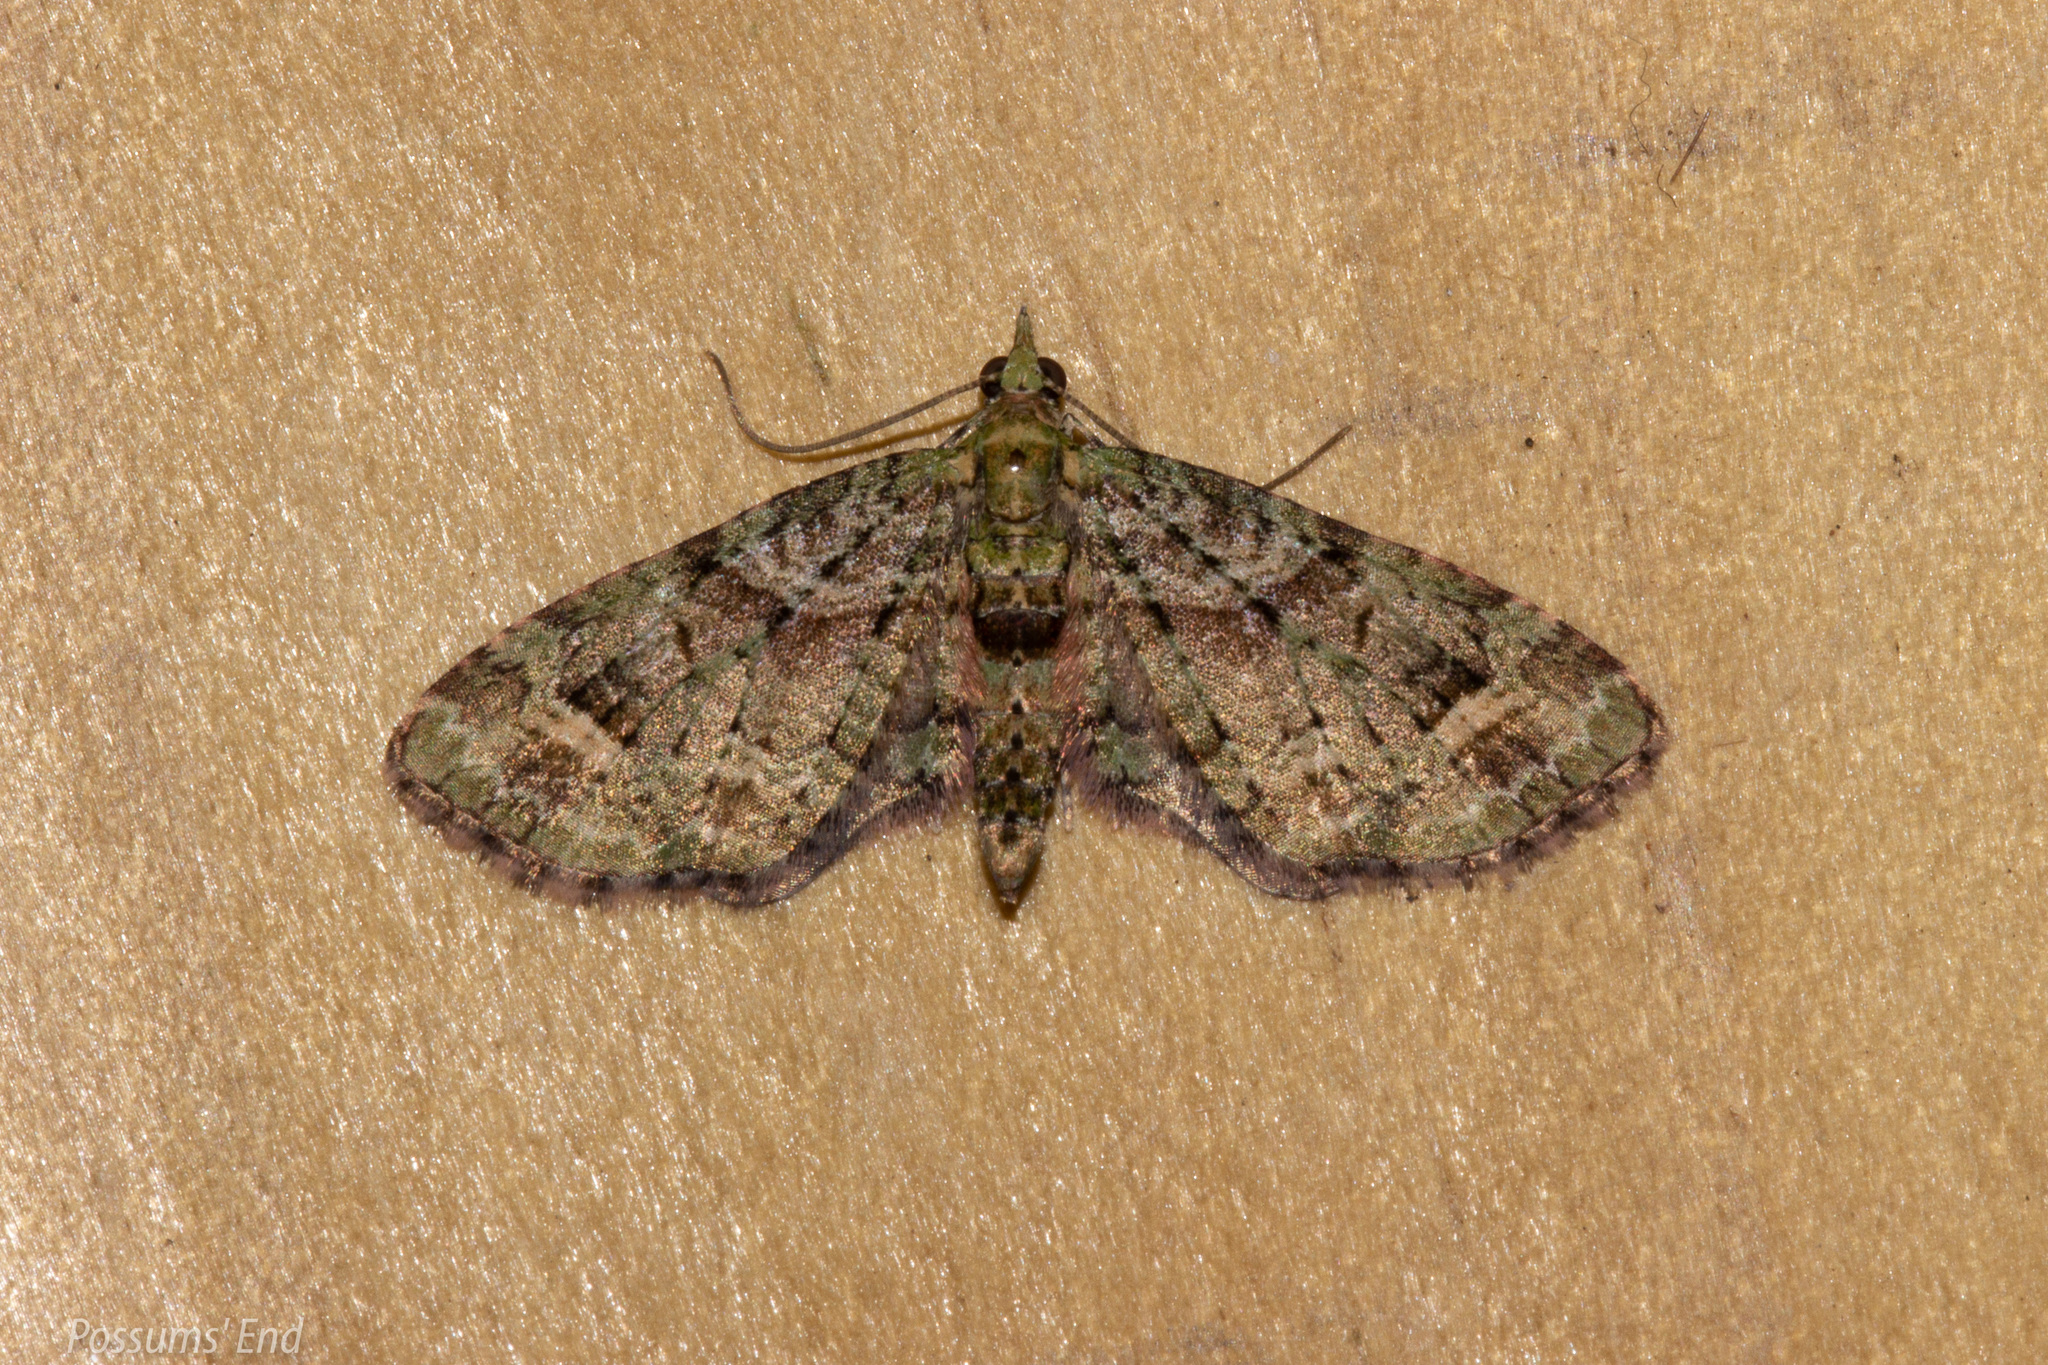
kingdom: Animalia
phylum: Arthropoda
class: Insecta
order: Lepidoptera
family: Geometridae
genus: Idaea
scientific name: Idaea mutanda
